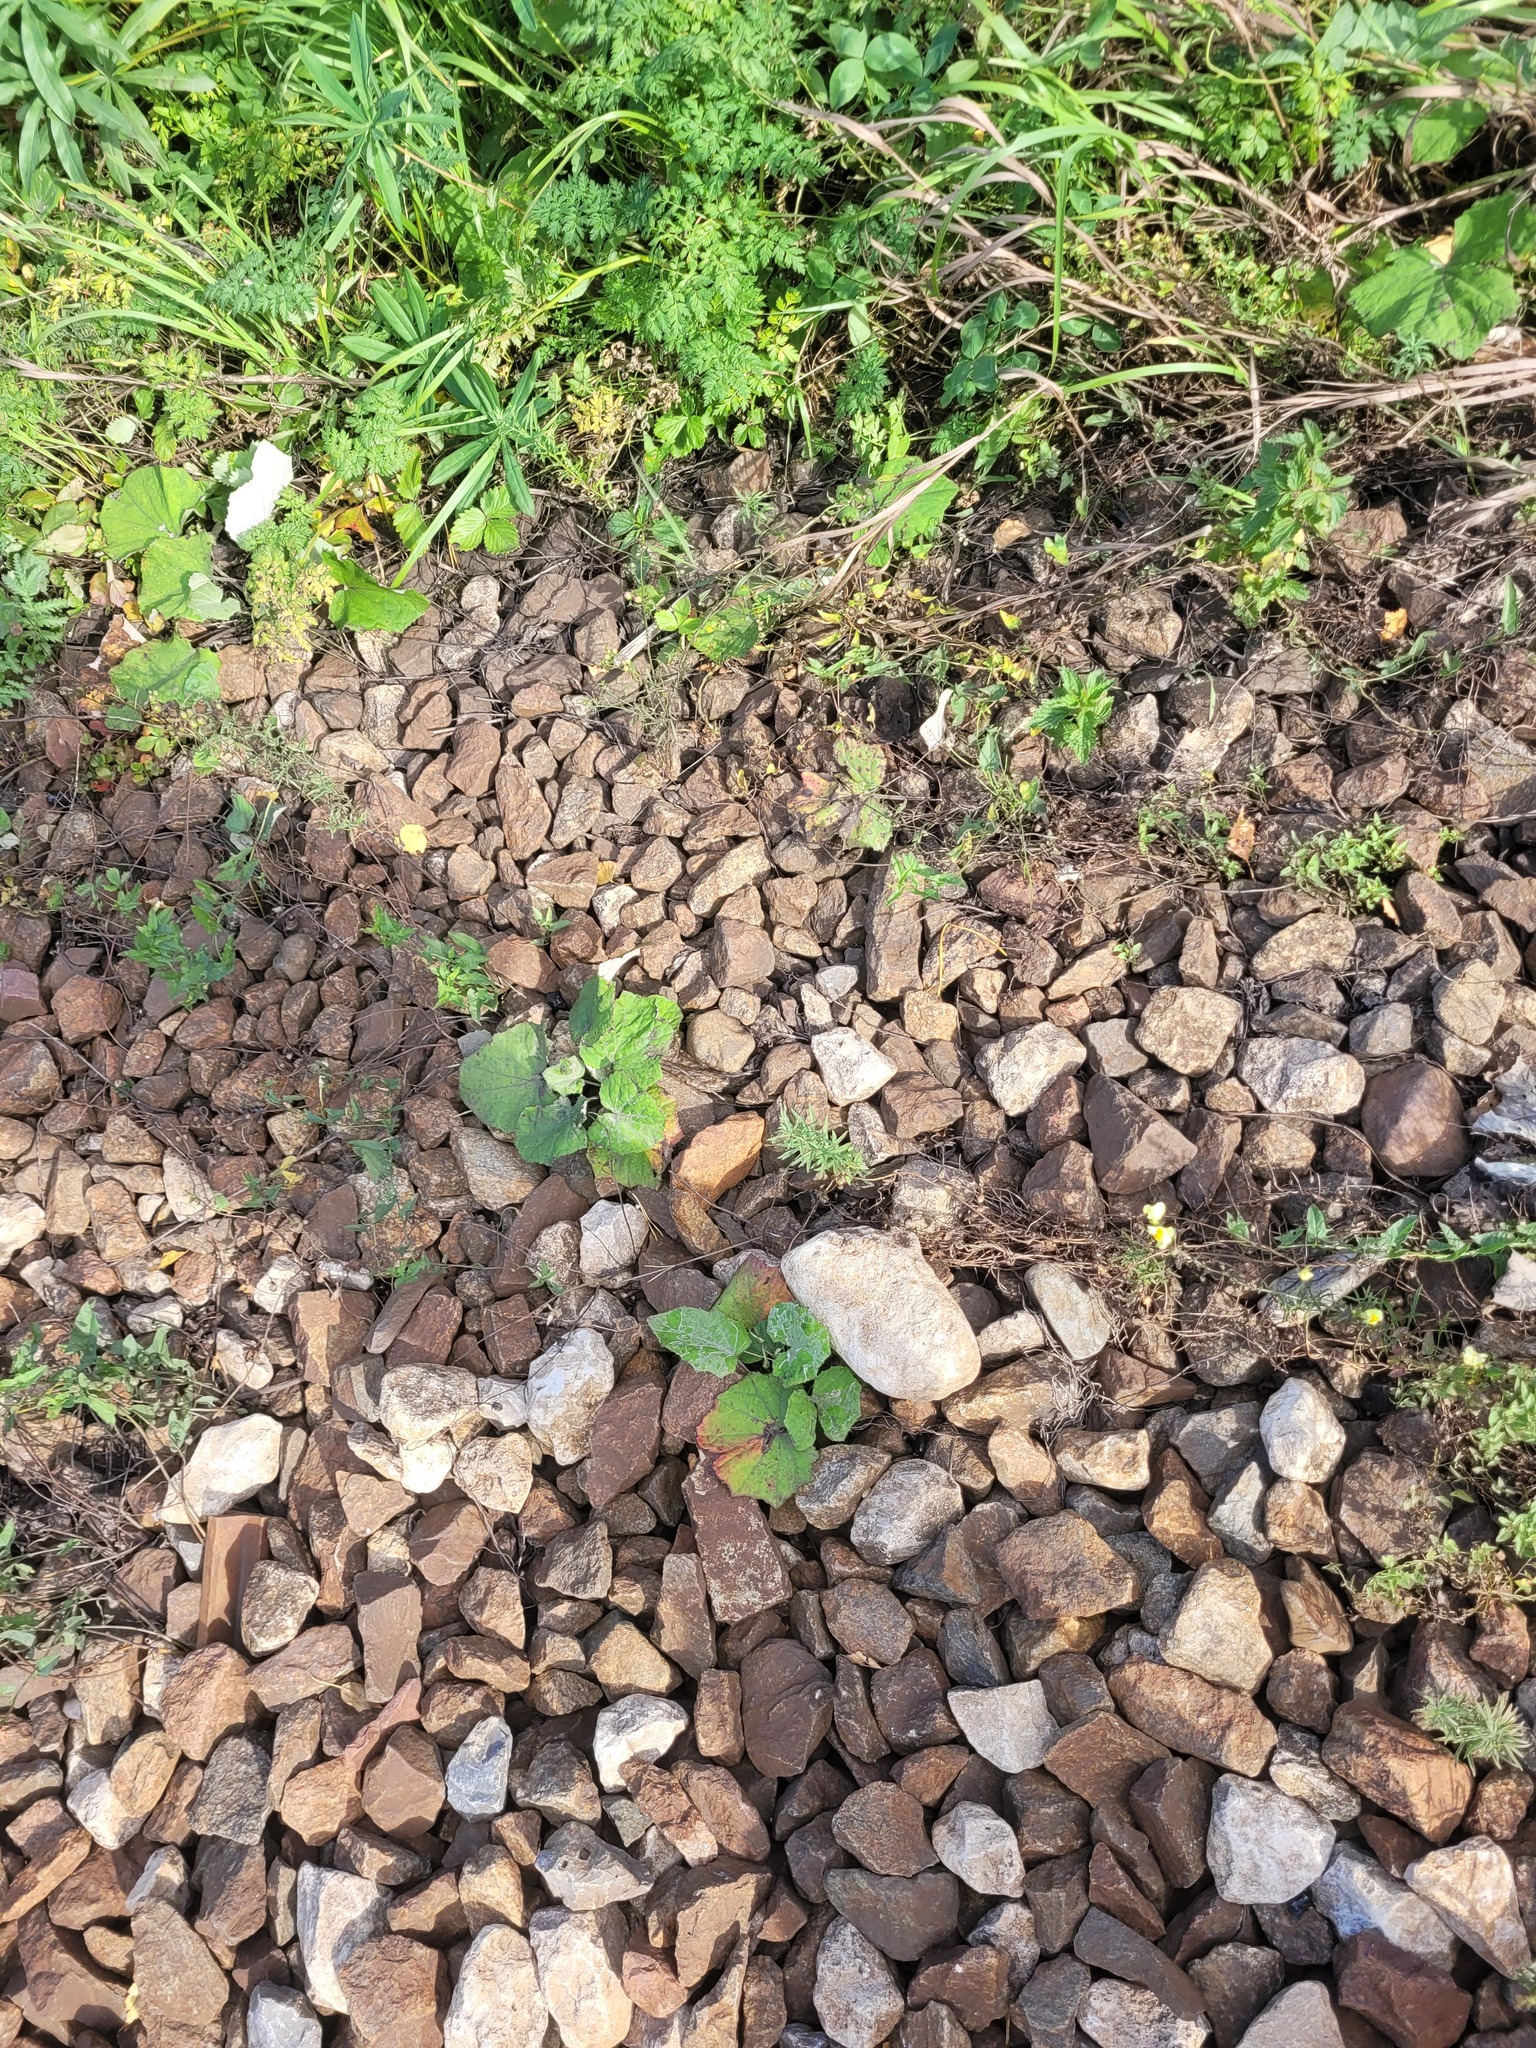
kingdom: Plantae
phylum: Tracheophyta
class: Magnoliopsida
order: Asterales
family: Asteraceae
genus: Tussilago
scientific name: Tussilago farfara
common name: Coltsfoot
